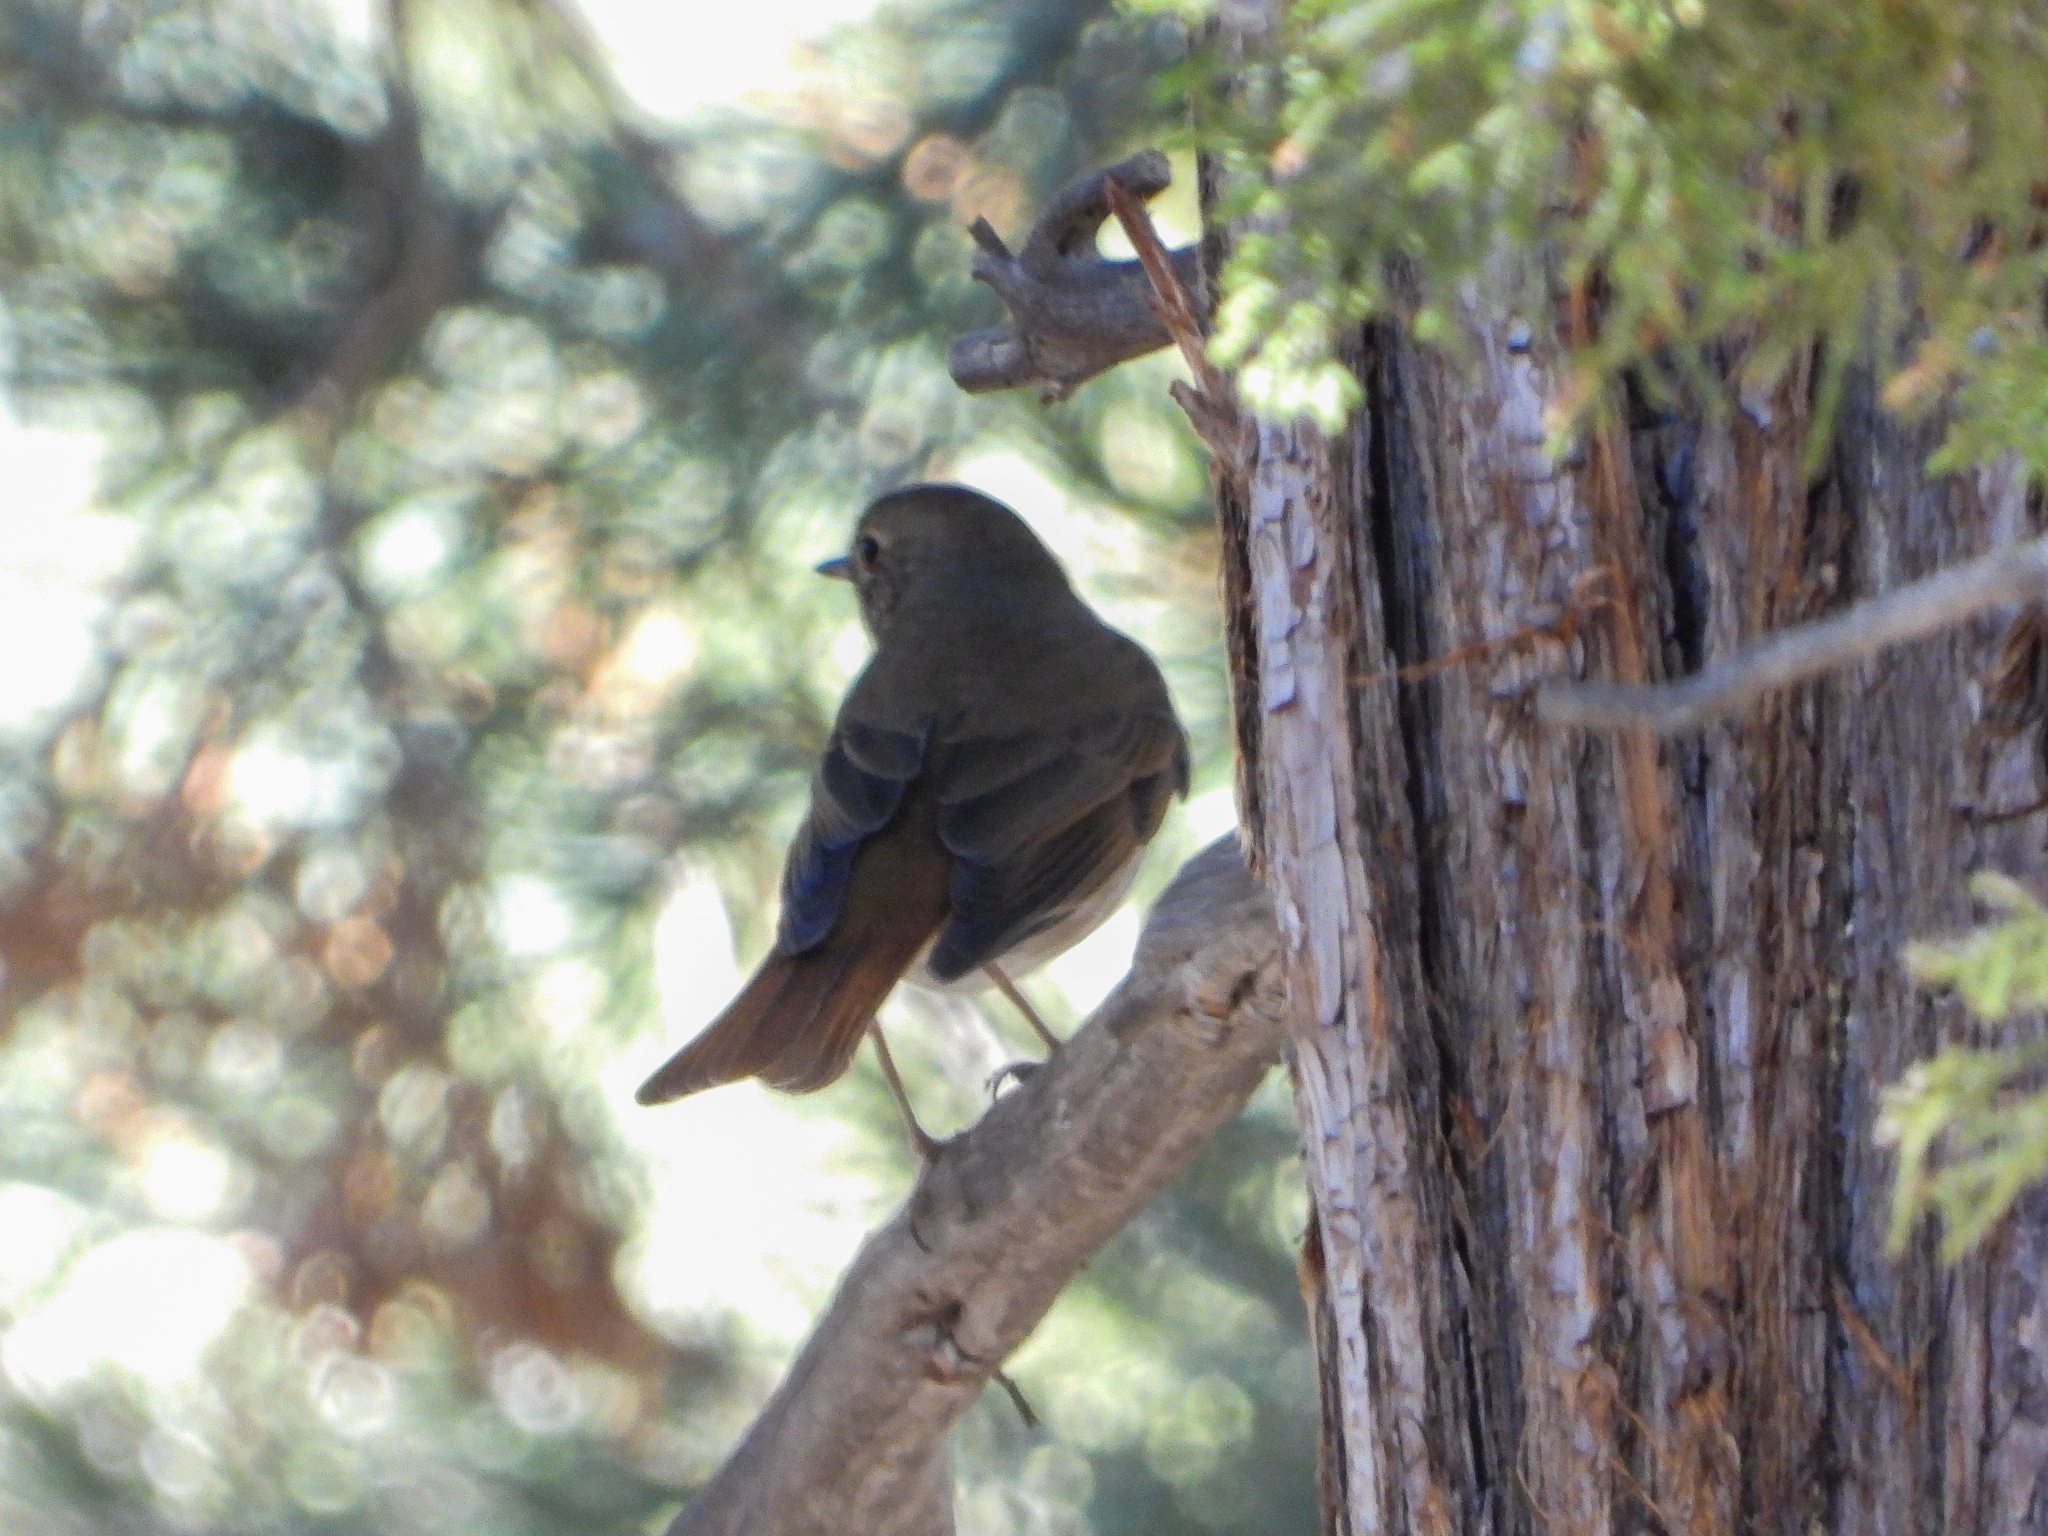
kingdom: Animalia
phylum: Chordata
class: Aves
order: Passeriformes
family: Turdidae
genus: Catharus
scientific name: Catharus guttatus
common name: Hermit thrush
